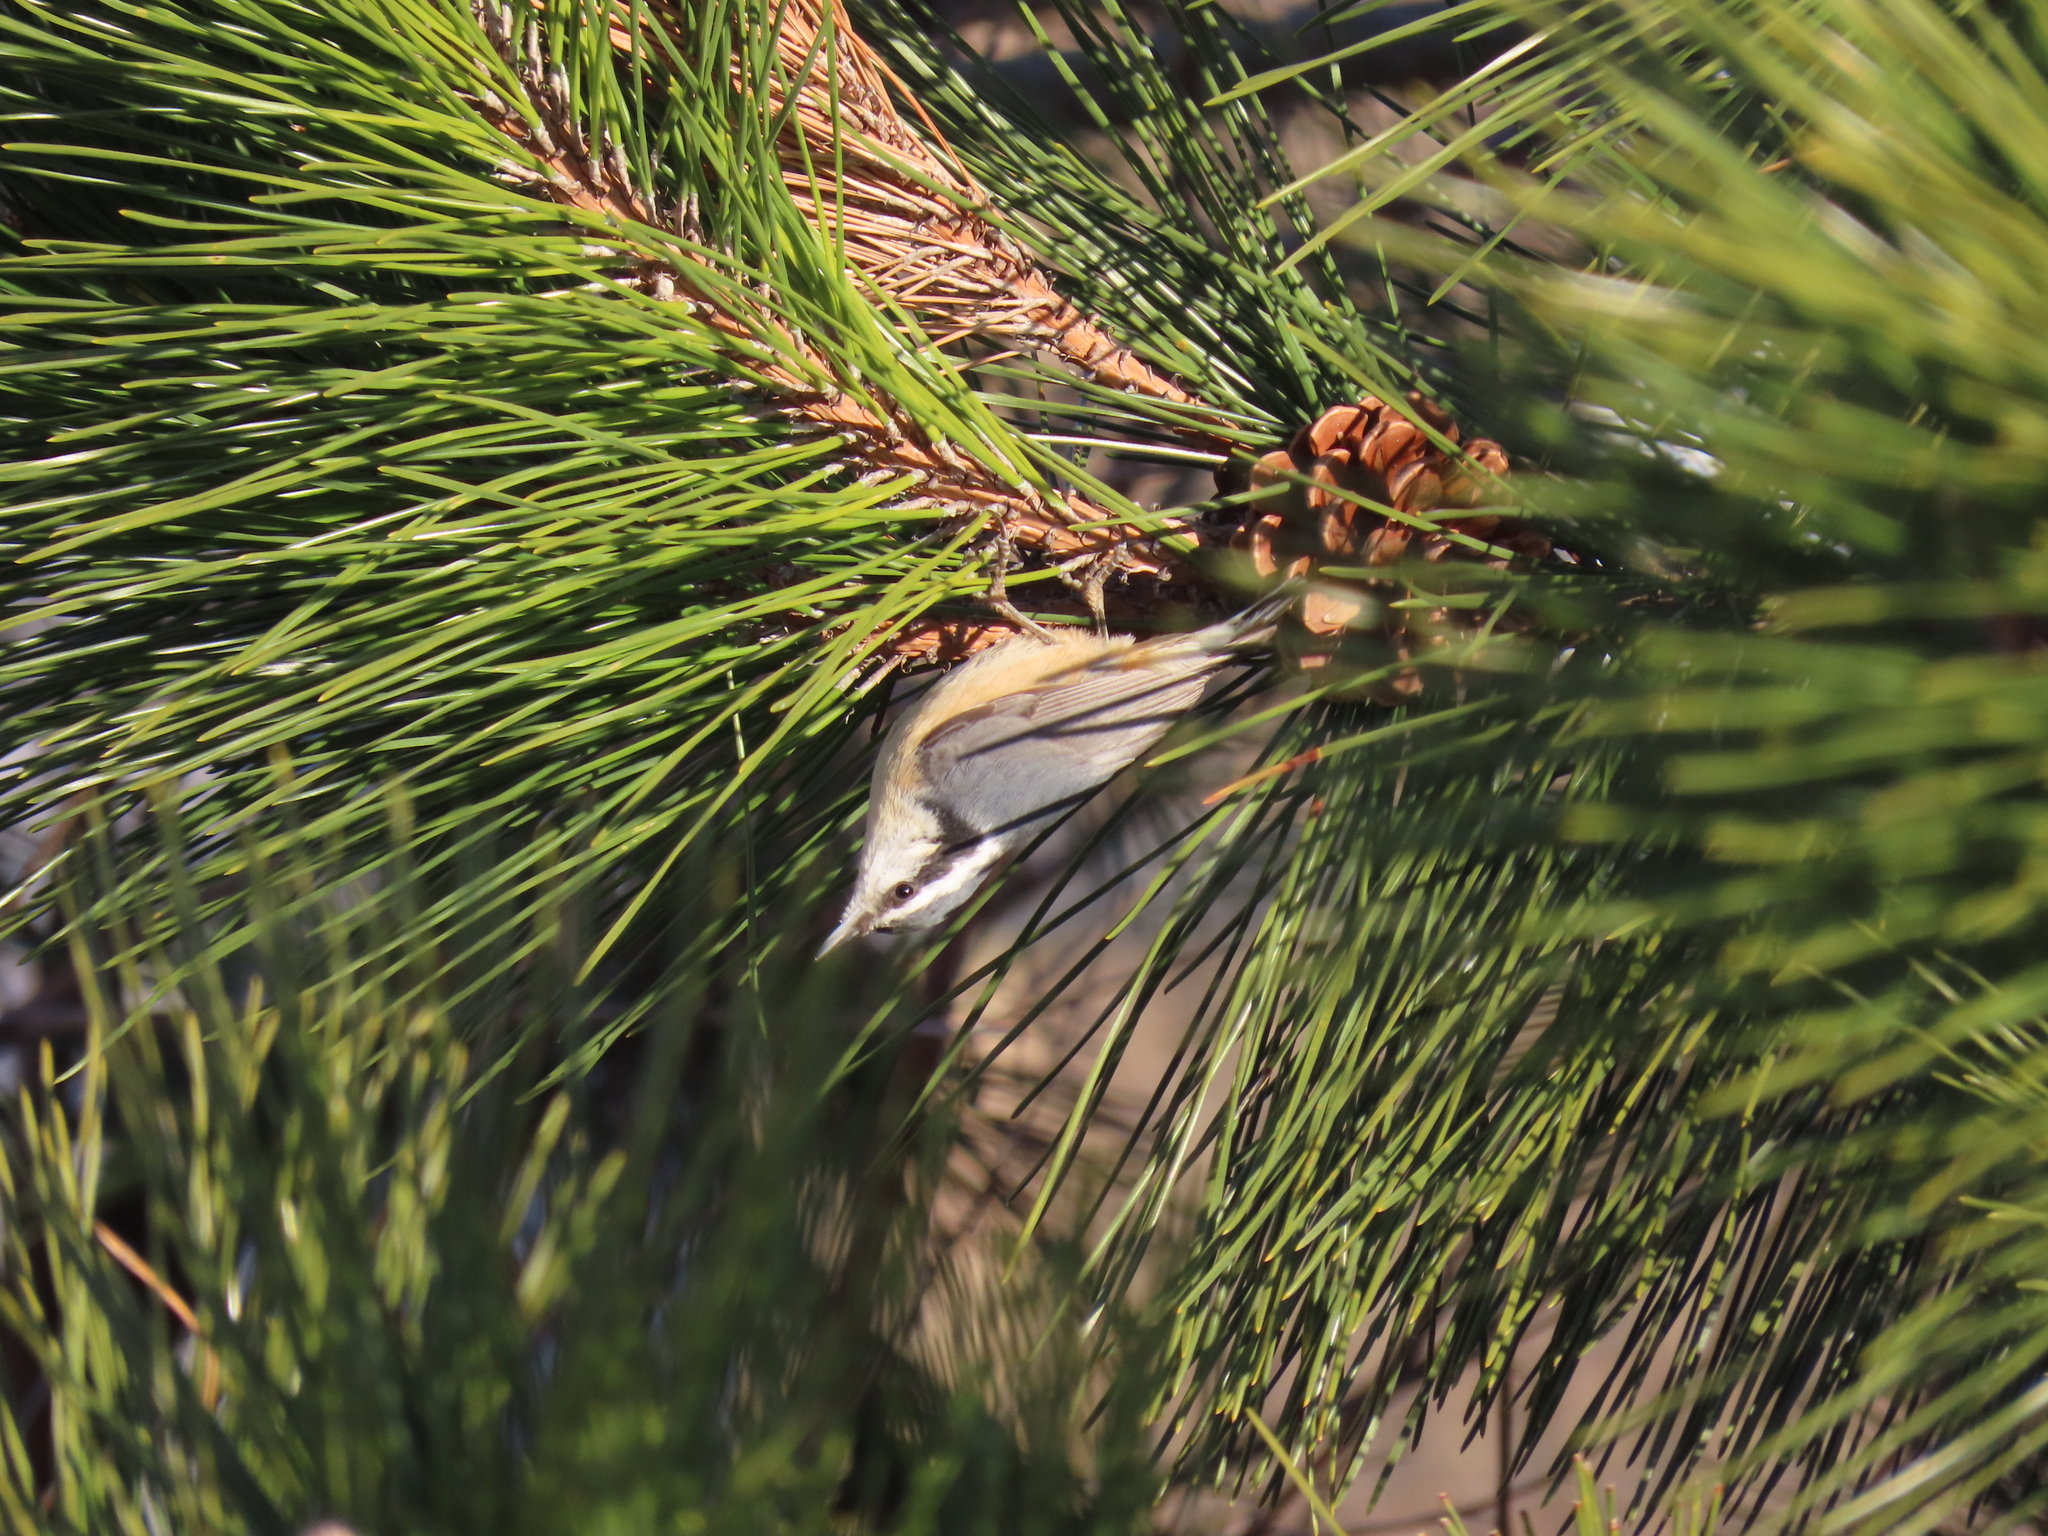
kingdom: Animalia
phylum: Chordata
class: Aves
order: Passeriformes
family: Sittidae
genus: Sitta
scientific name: Sitta canadensis
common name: Red-breasted nuthatch
